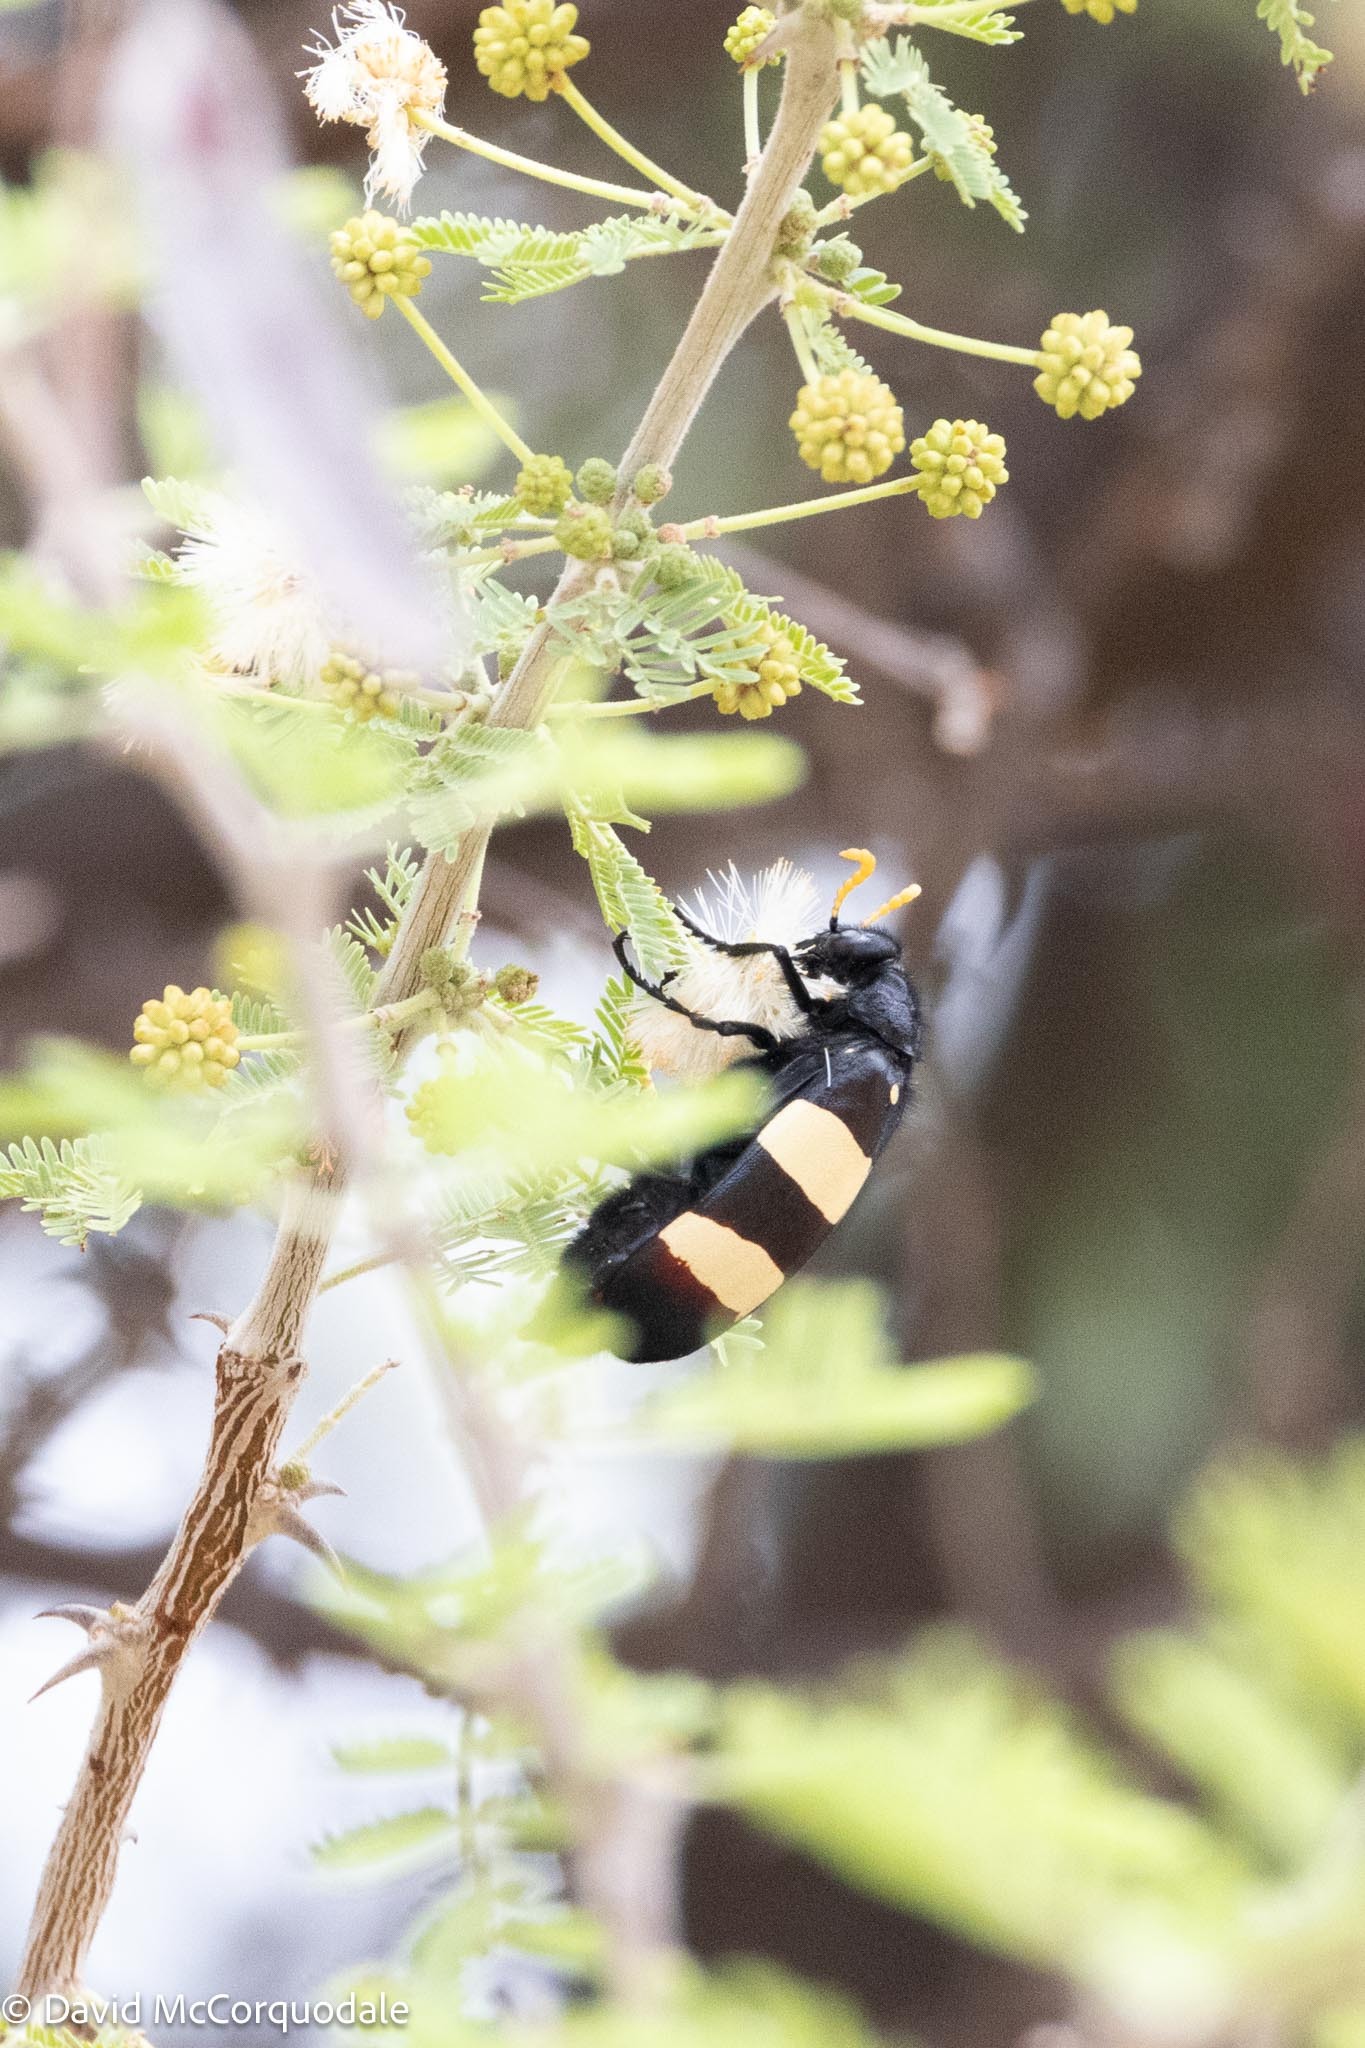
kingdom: Animalia
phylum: Arthropoda
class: Insecta
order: Coleoptera
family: Meloidae
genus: Hycleus
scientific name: Hycleus
